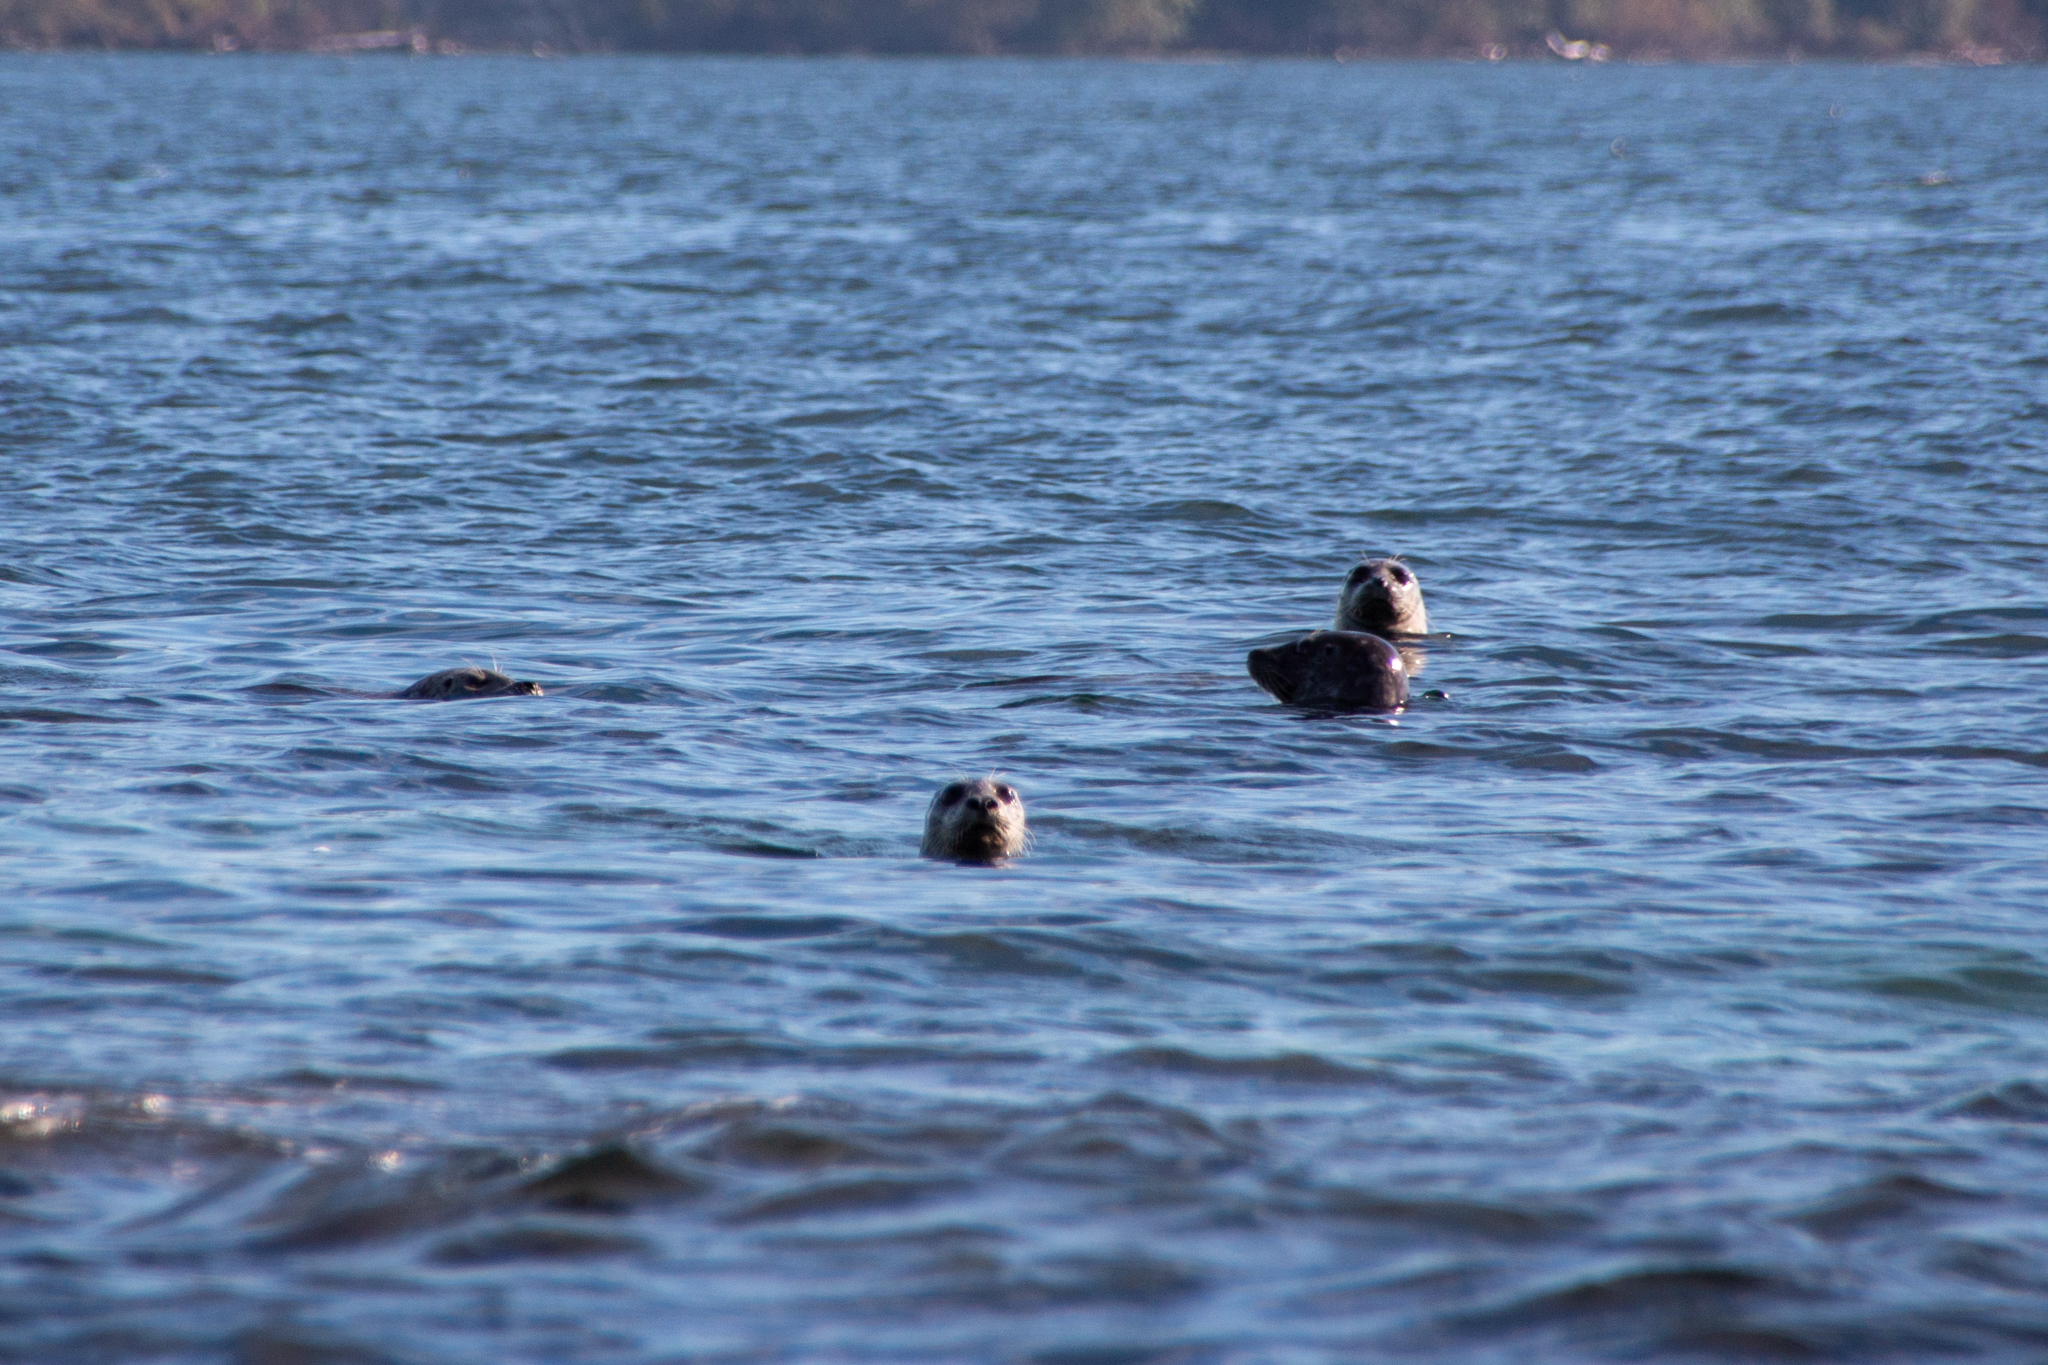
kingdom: Animalia
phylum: Chordata
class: Mammalia
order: Carnivora
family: Phocidae
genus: Phoca
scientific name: Phoca vitulina
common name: Harbor seal
